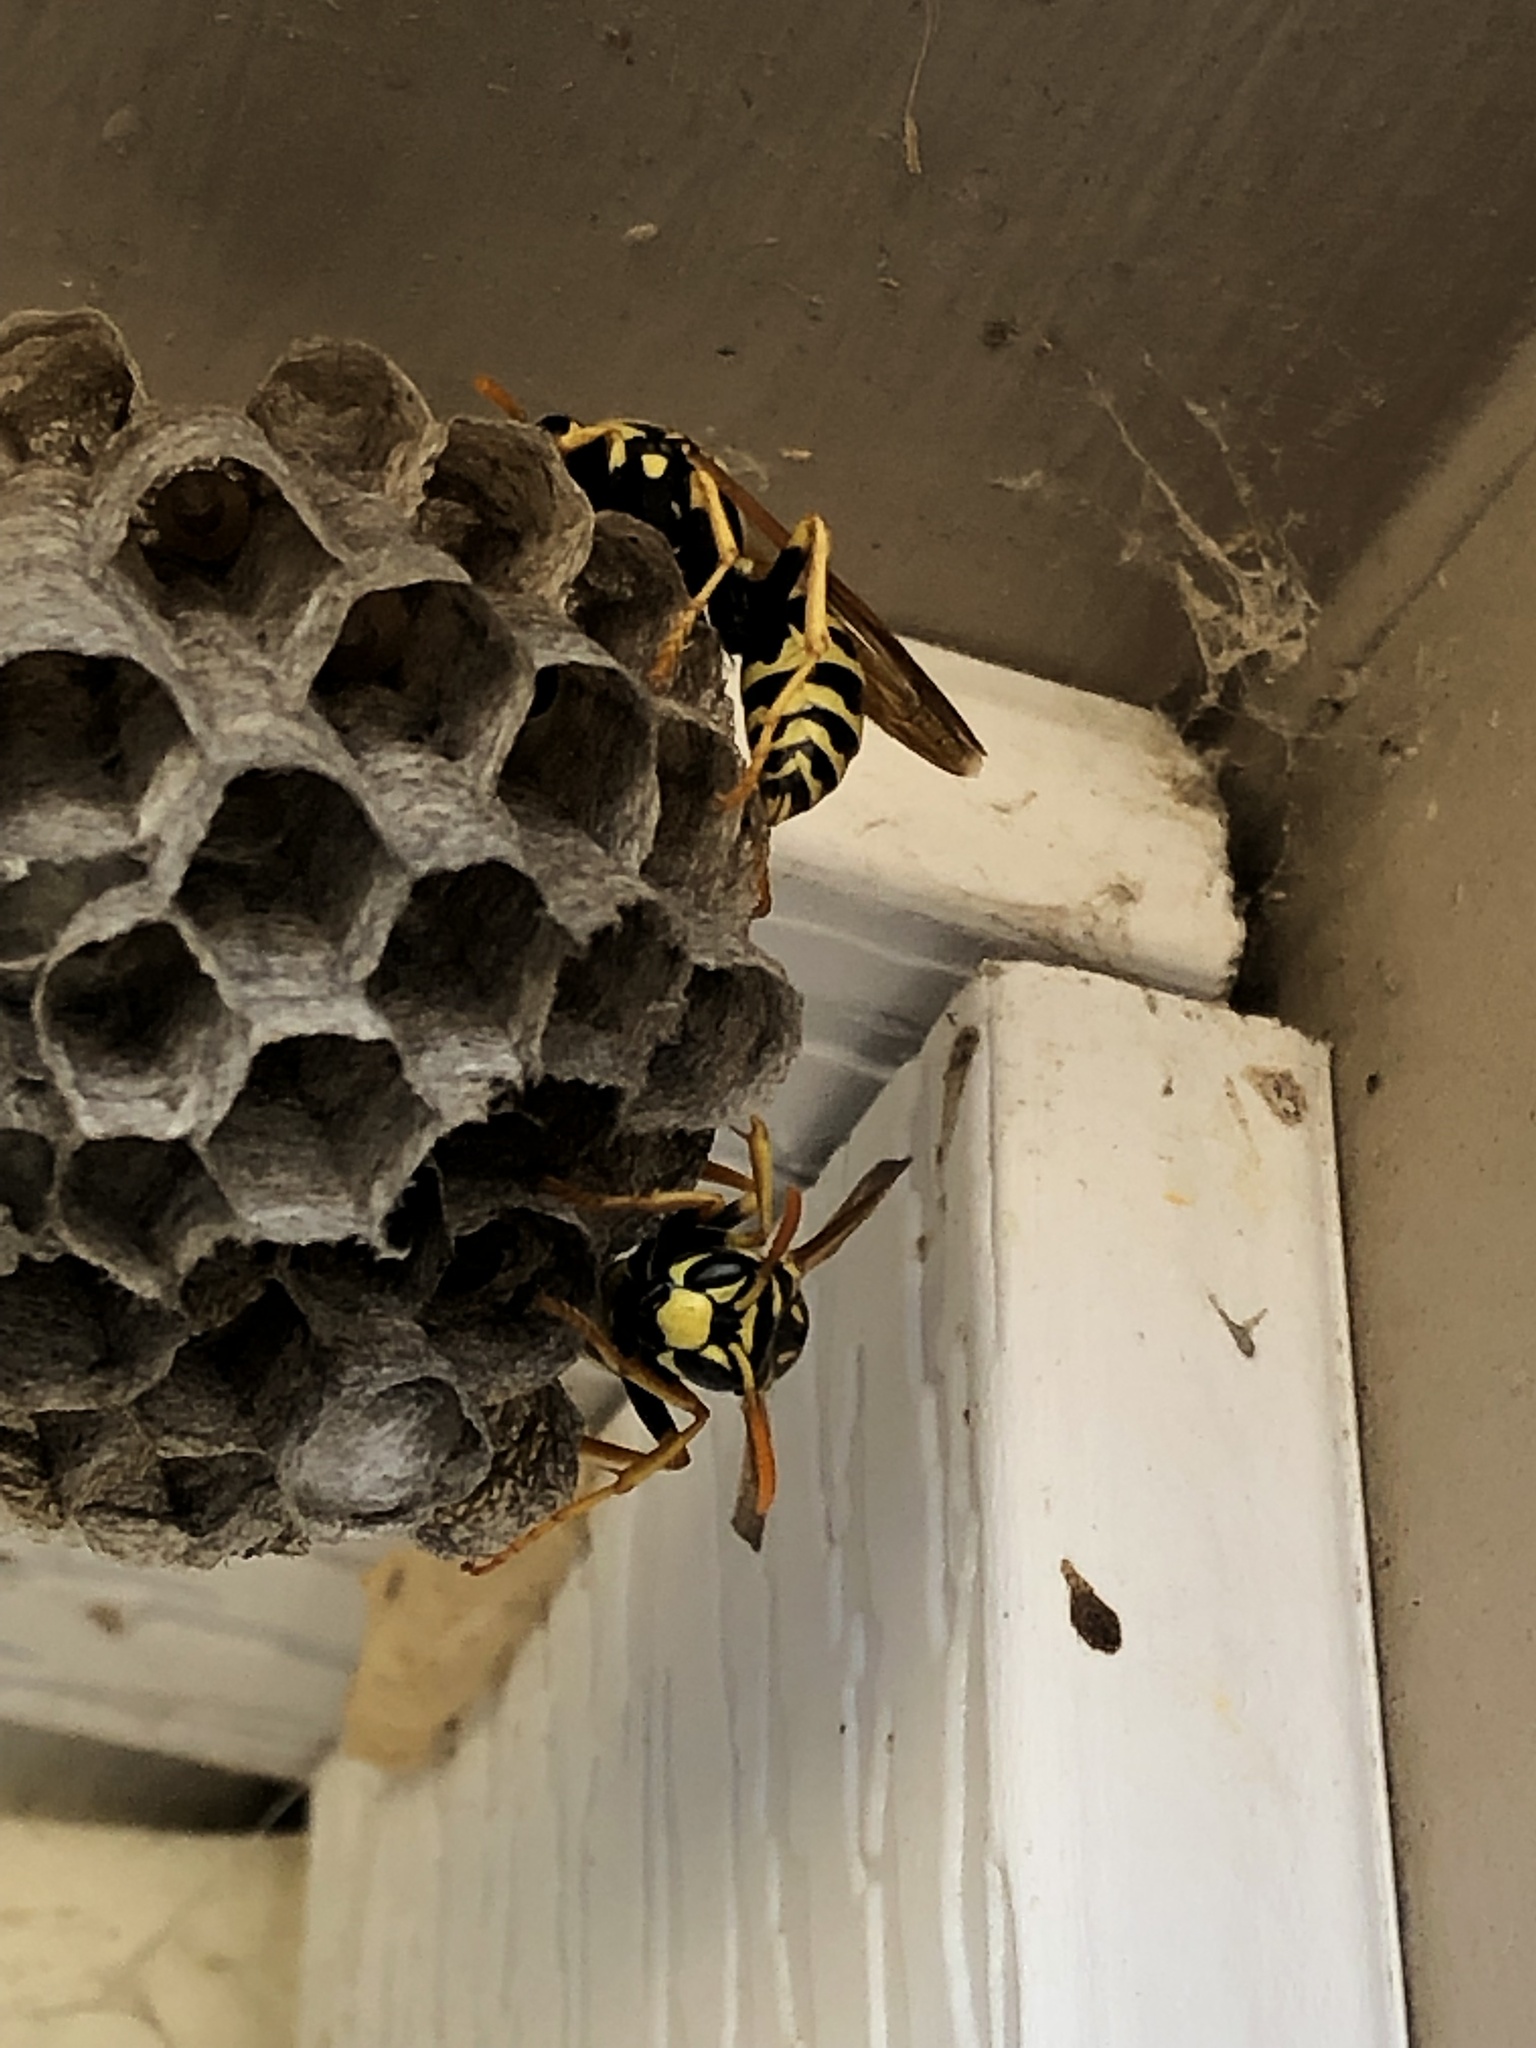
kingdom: Animalia
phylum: Arthropoda
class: Insecta
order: Hymenoptera
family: Eumenidae
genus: Polistes
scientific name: Polistes dominula
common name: Paper wasp
